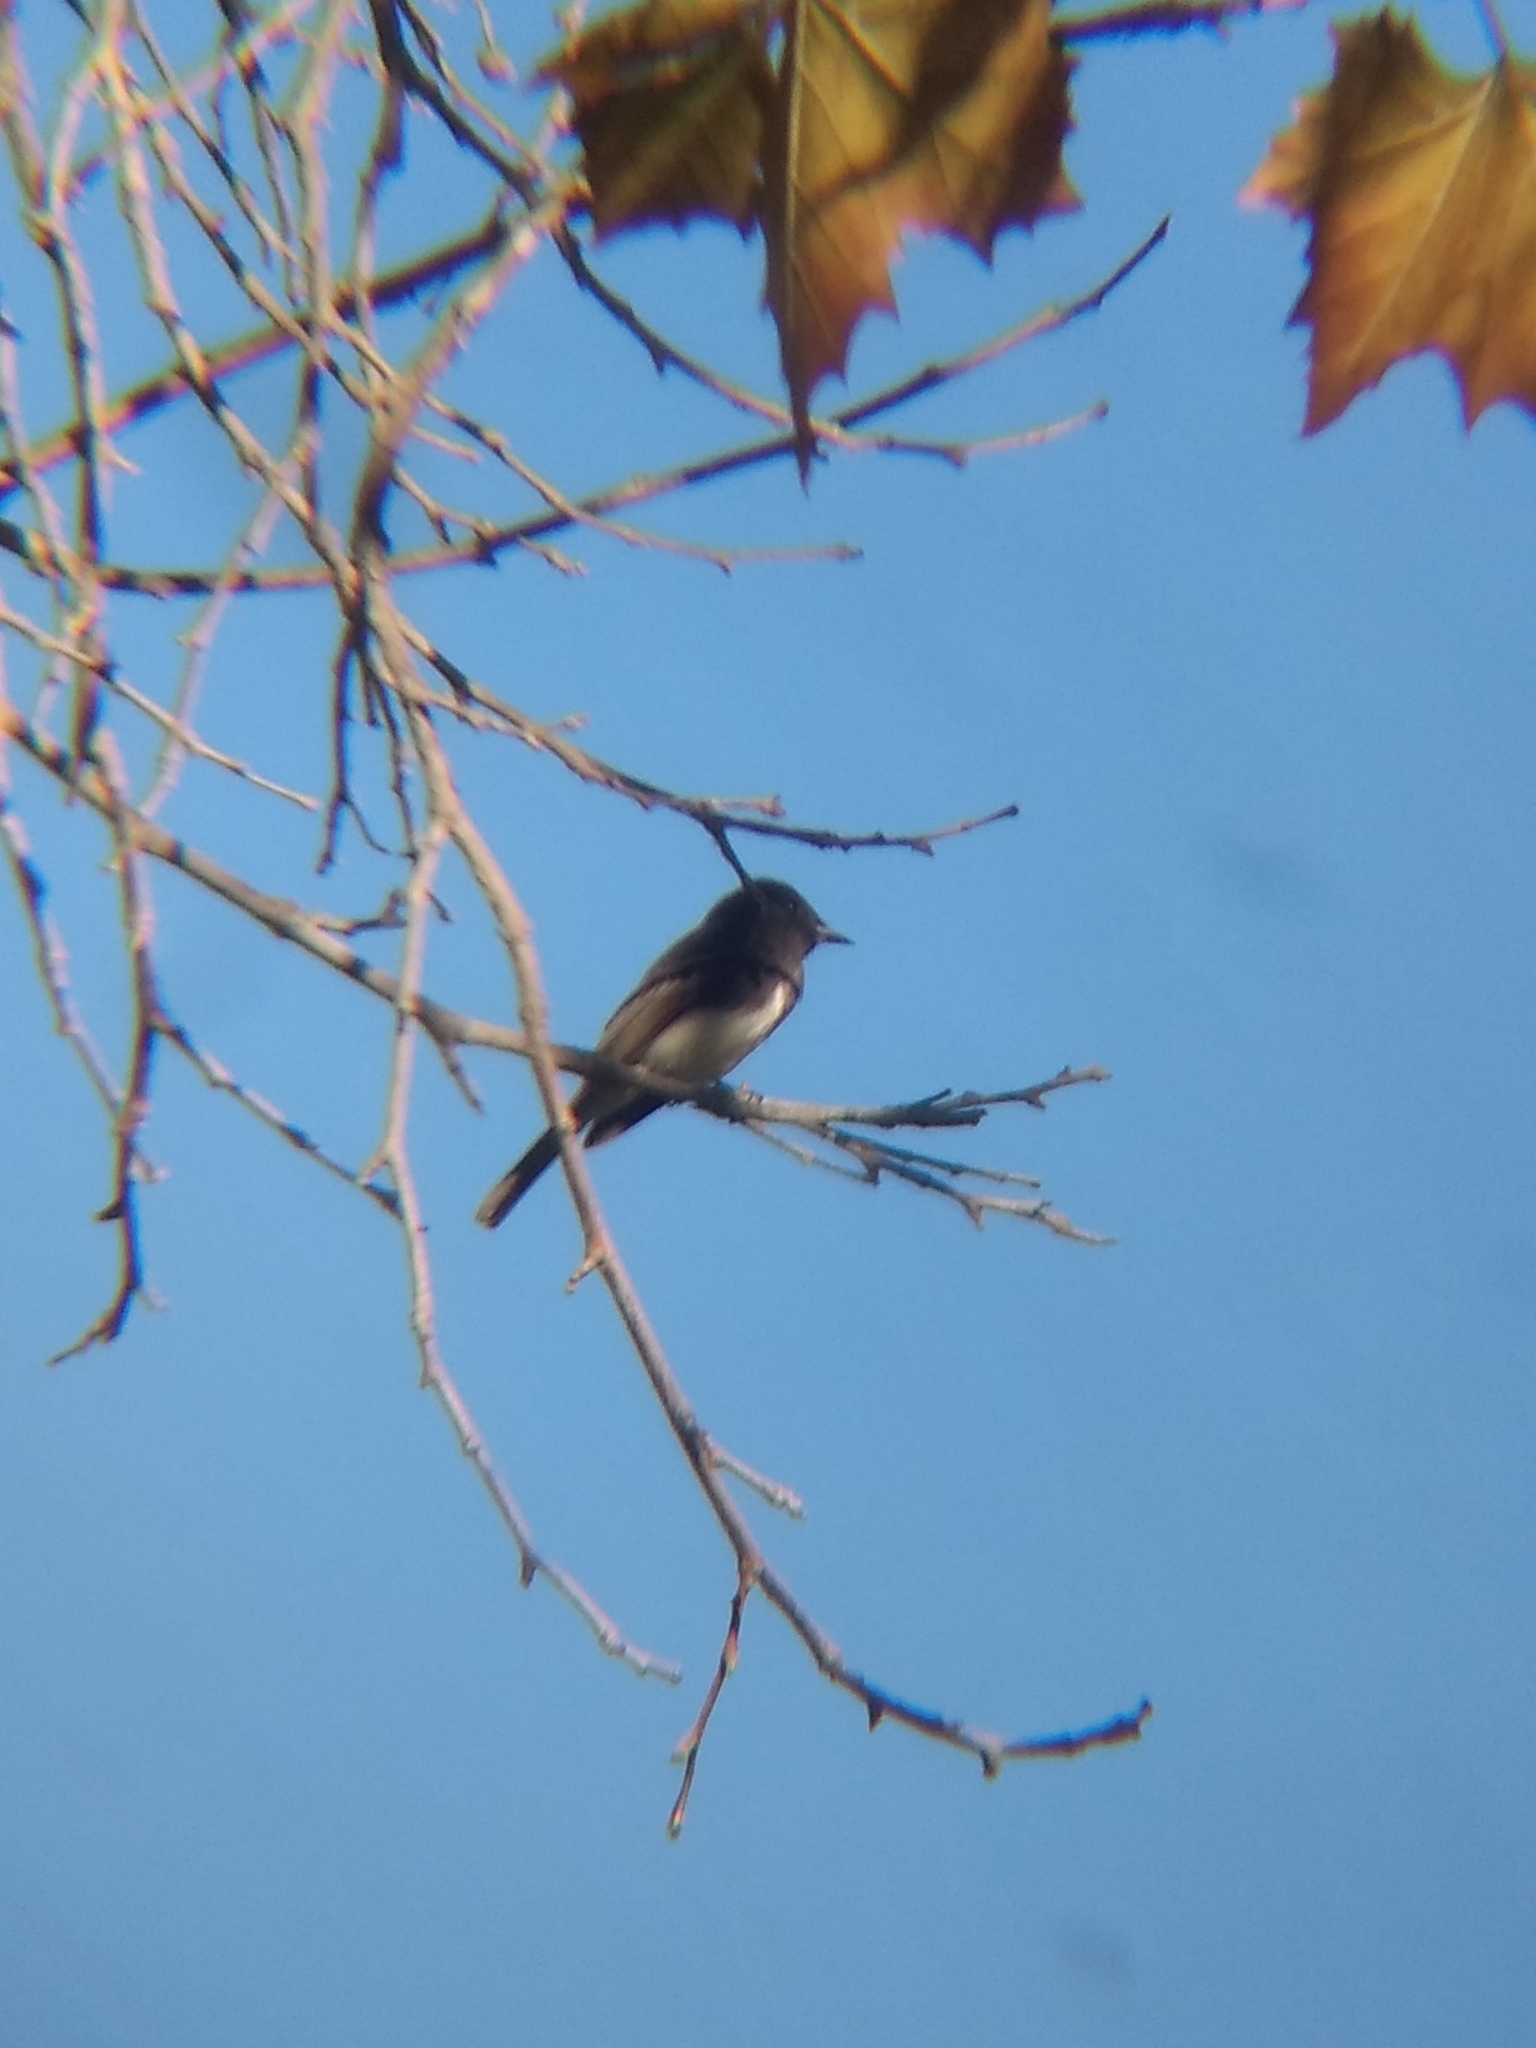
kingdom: Animalia
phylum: Chordata
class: Aves
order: Passeriformes
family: Tyrannidae
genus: Sayornis
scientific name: Sayornis nigricans
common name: Black phoebe
